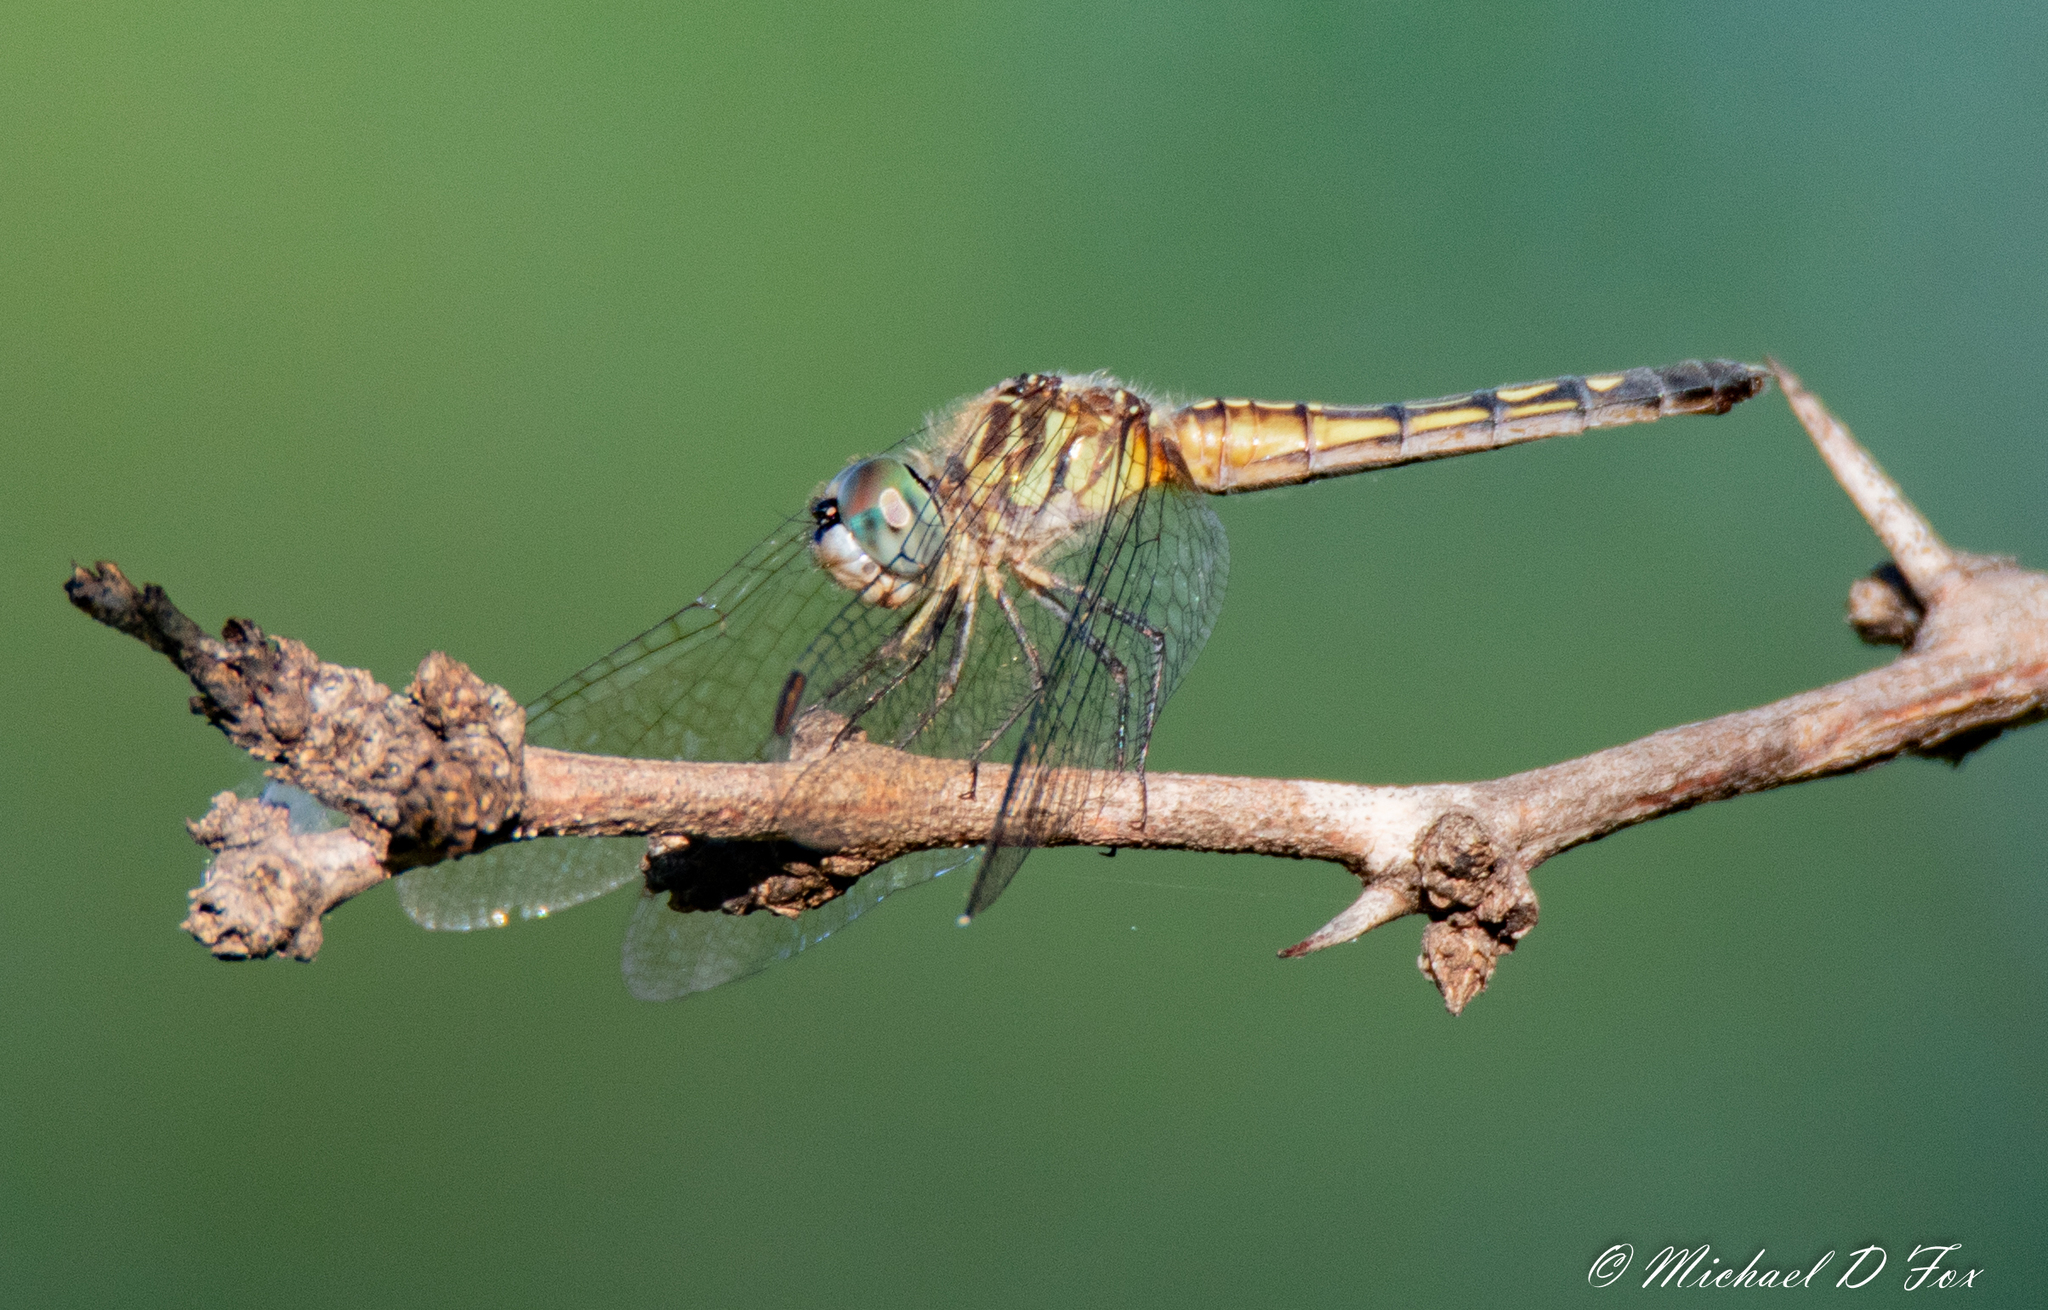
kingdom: Animalia
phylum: Arthropoda
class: Insecta
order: Odonata
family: Libellulidae
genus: Pachydiplax
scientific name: Pachydiplax longipennis
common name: Blue dasher
